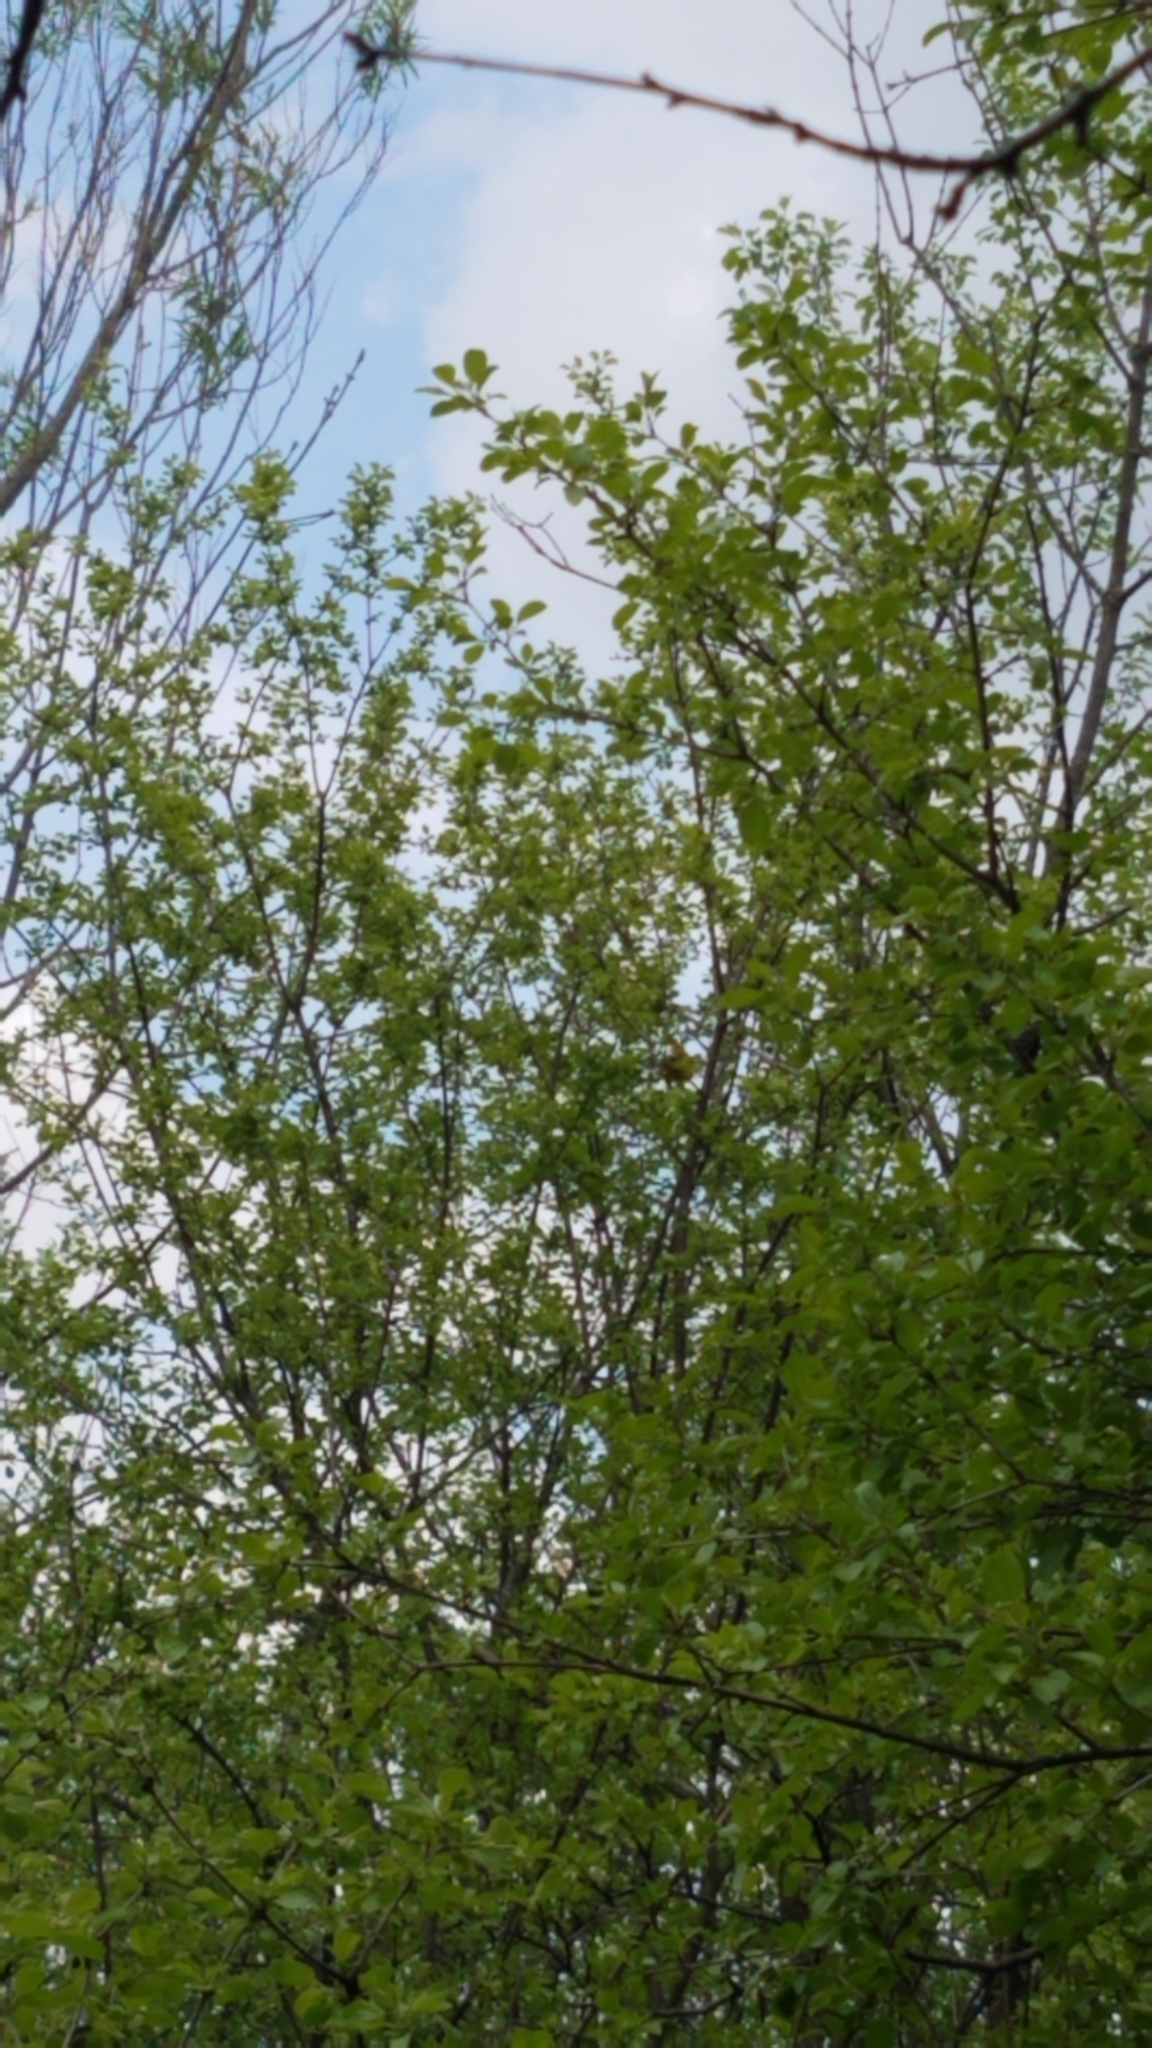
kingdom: Animalia
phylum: Chordata
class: Aves
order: Passeriformes
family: Parulidae
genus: Setophaga
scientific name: Setophaga petechia
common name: Yellow warbler
